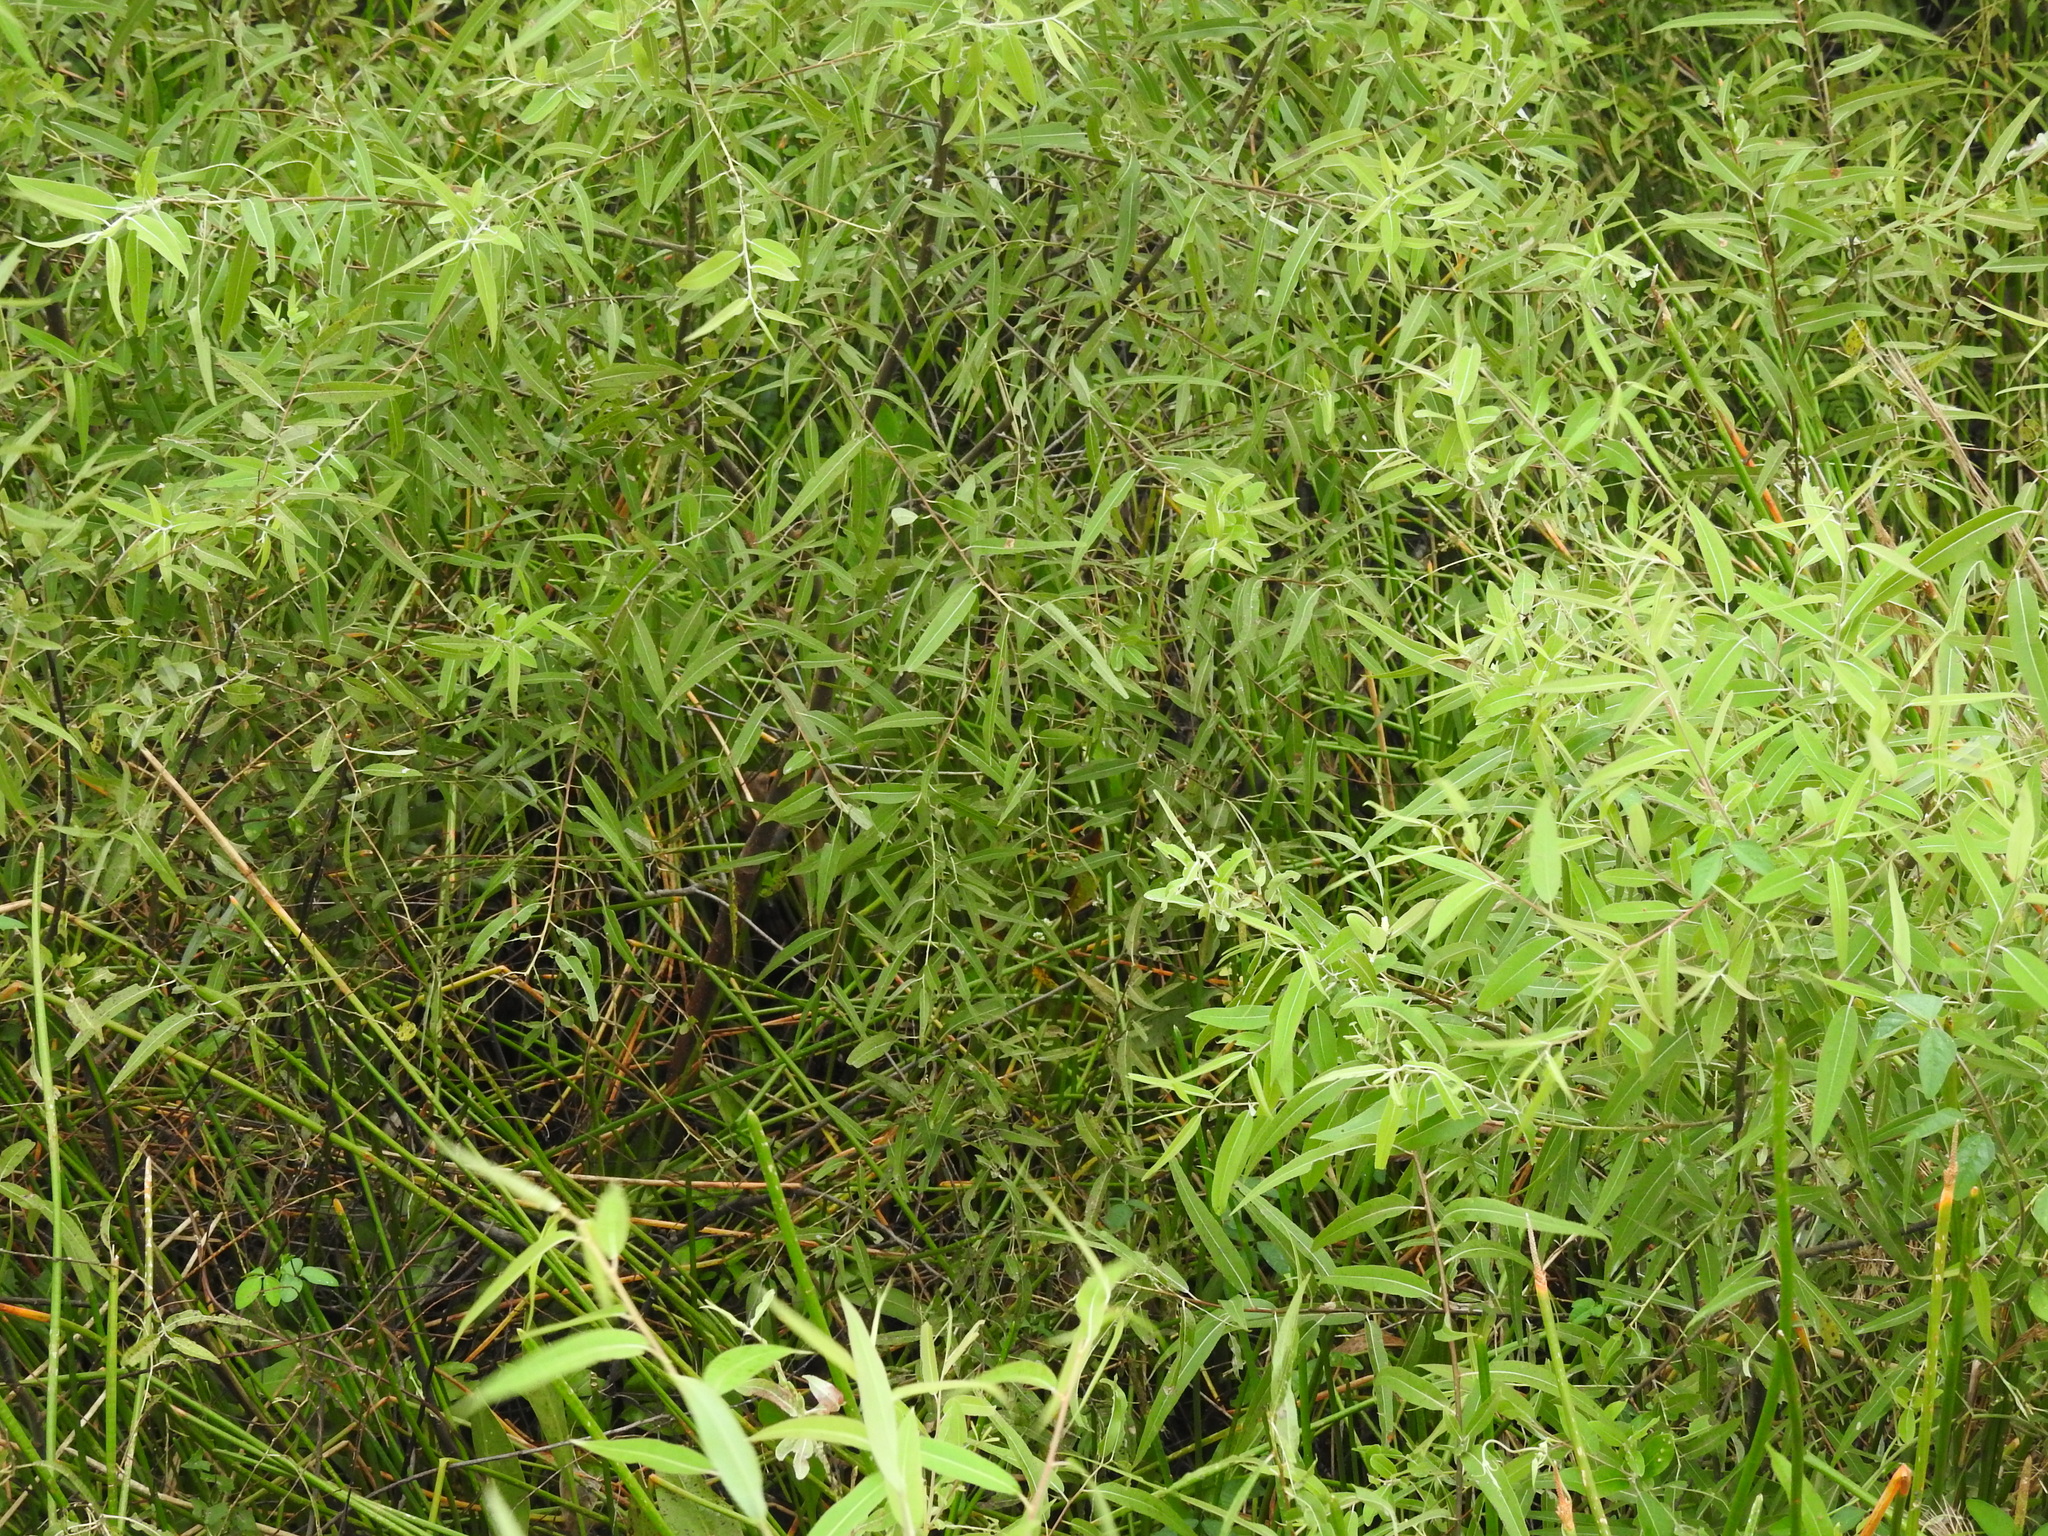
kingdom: Plantae
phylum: Tracheophyta
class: Magnoliopsida
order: Malpighiales
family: Salicaceae
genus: Salix
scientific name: Salix caroliniana
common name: Carolina willow
